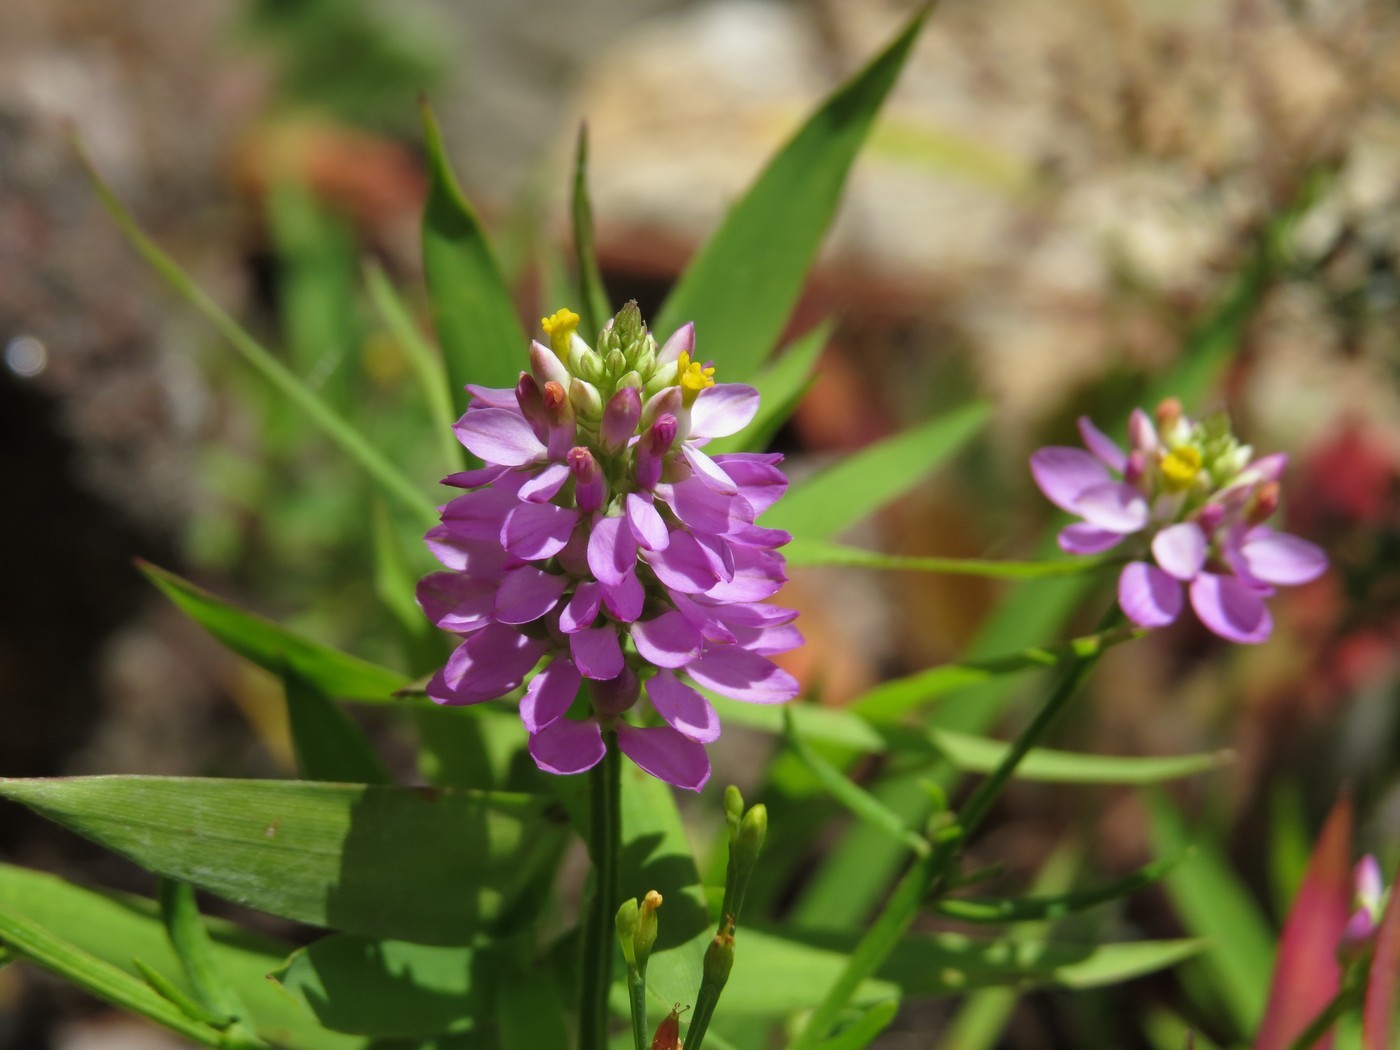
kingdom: Plantae
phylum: Tracheophyta
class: Magnoliopsida
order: Fabales
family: Polygalaceae
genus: Polygala
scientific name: Polygala curtissii
